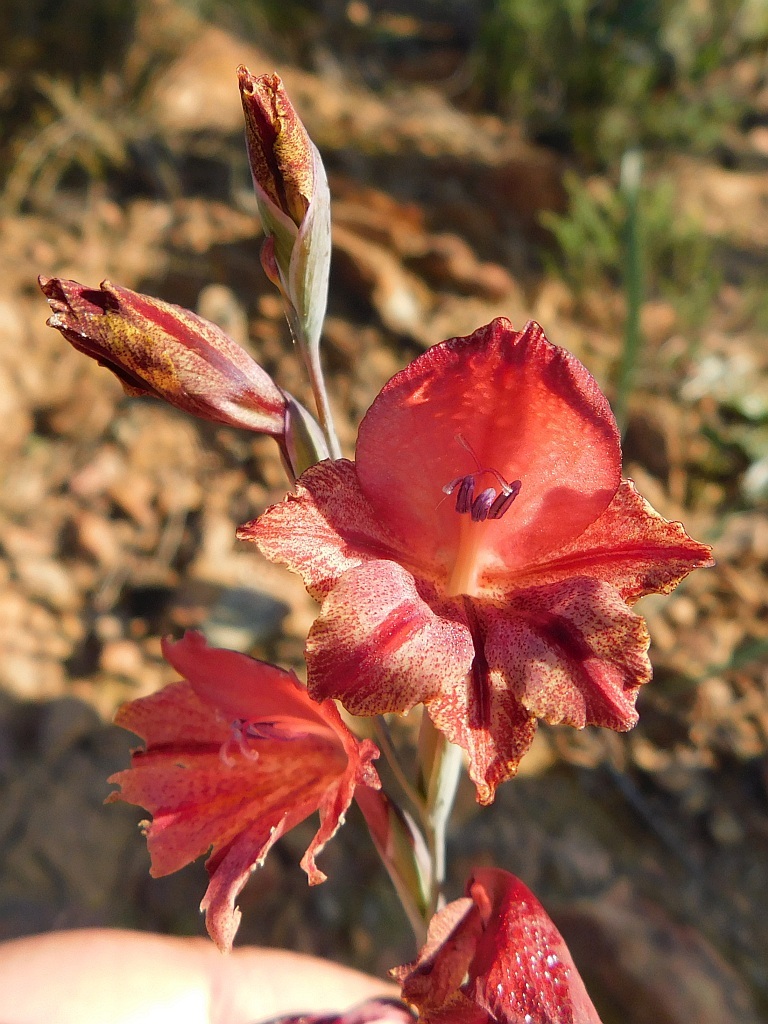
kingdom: Plantae
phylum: Tracheophyta
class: Liliopsida
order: Asparagales
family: Iridaceae
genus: Gladiolus
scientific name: Gladiolus guthriei
